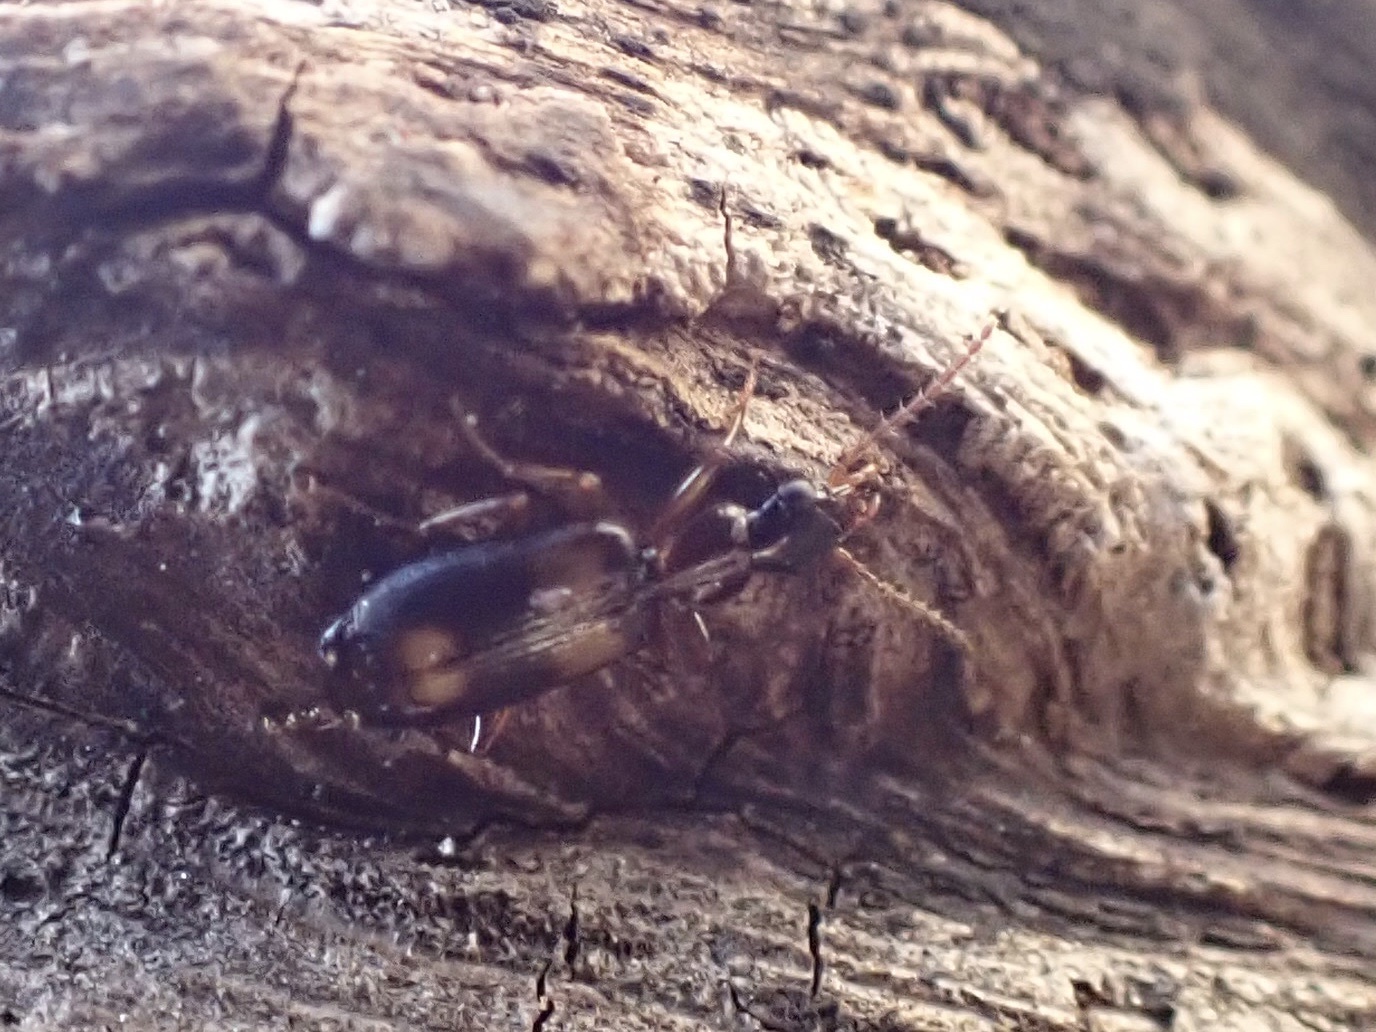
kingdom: Animalia
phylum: Arthropoda
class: Insecta
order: Coleoptera
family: Carabidae
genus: Calodromius
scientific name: Calodromius spilotus
